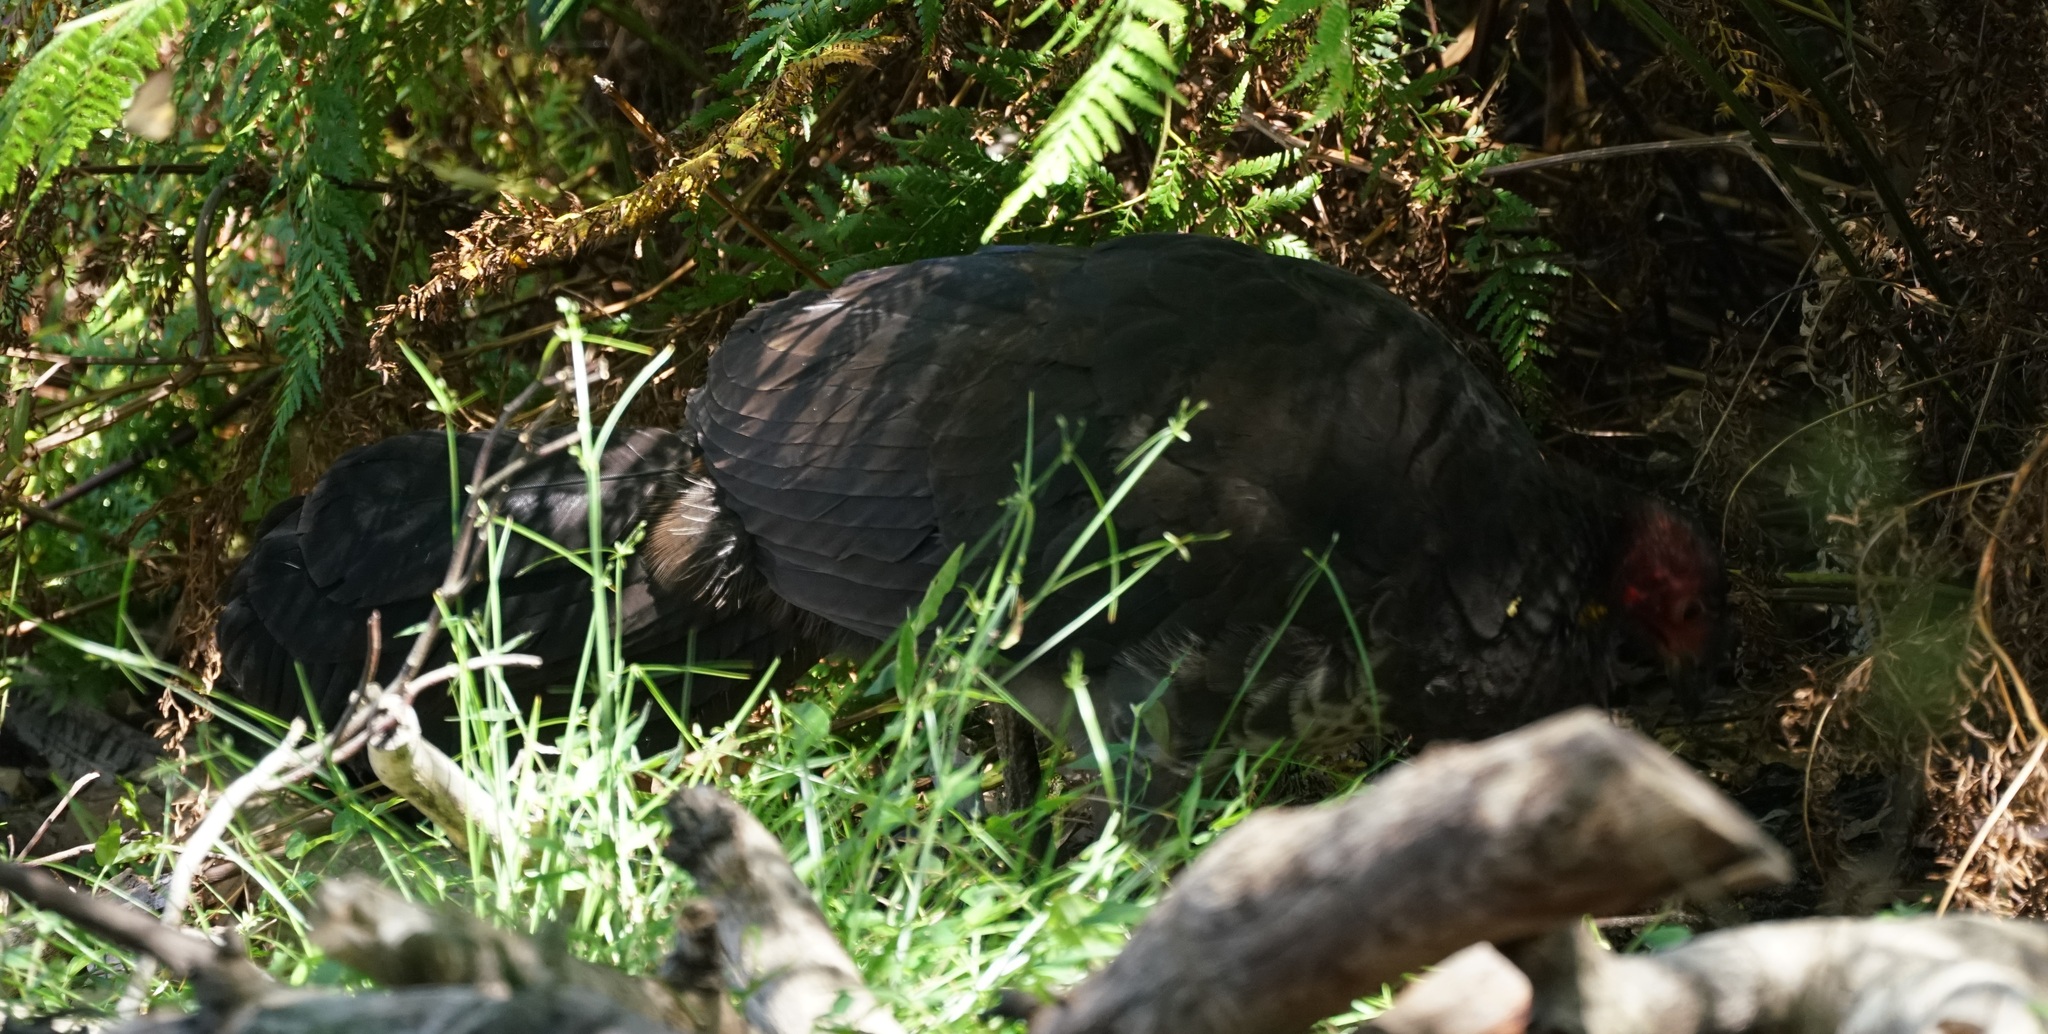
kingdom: Animalia
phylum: Chordata
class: Aves
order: Galliformes
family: Megapodiidae
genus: Alectura
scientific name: Alectura lathami
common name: Australian brushturkey
